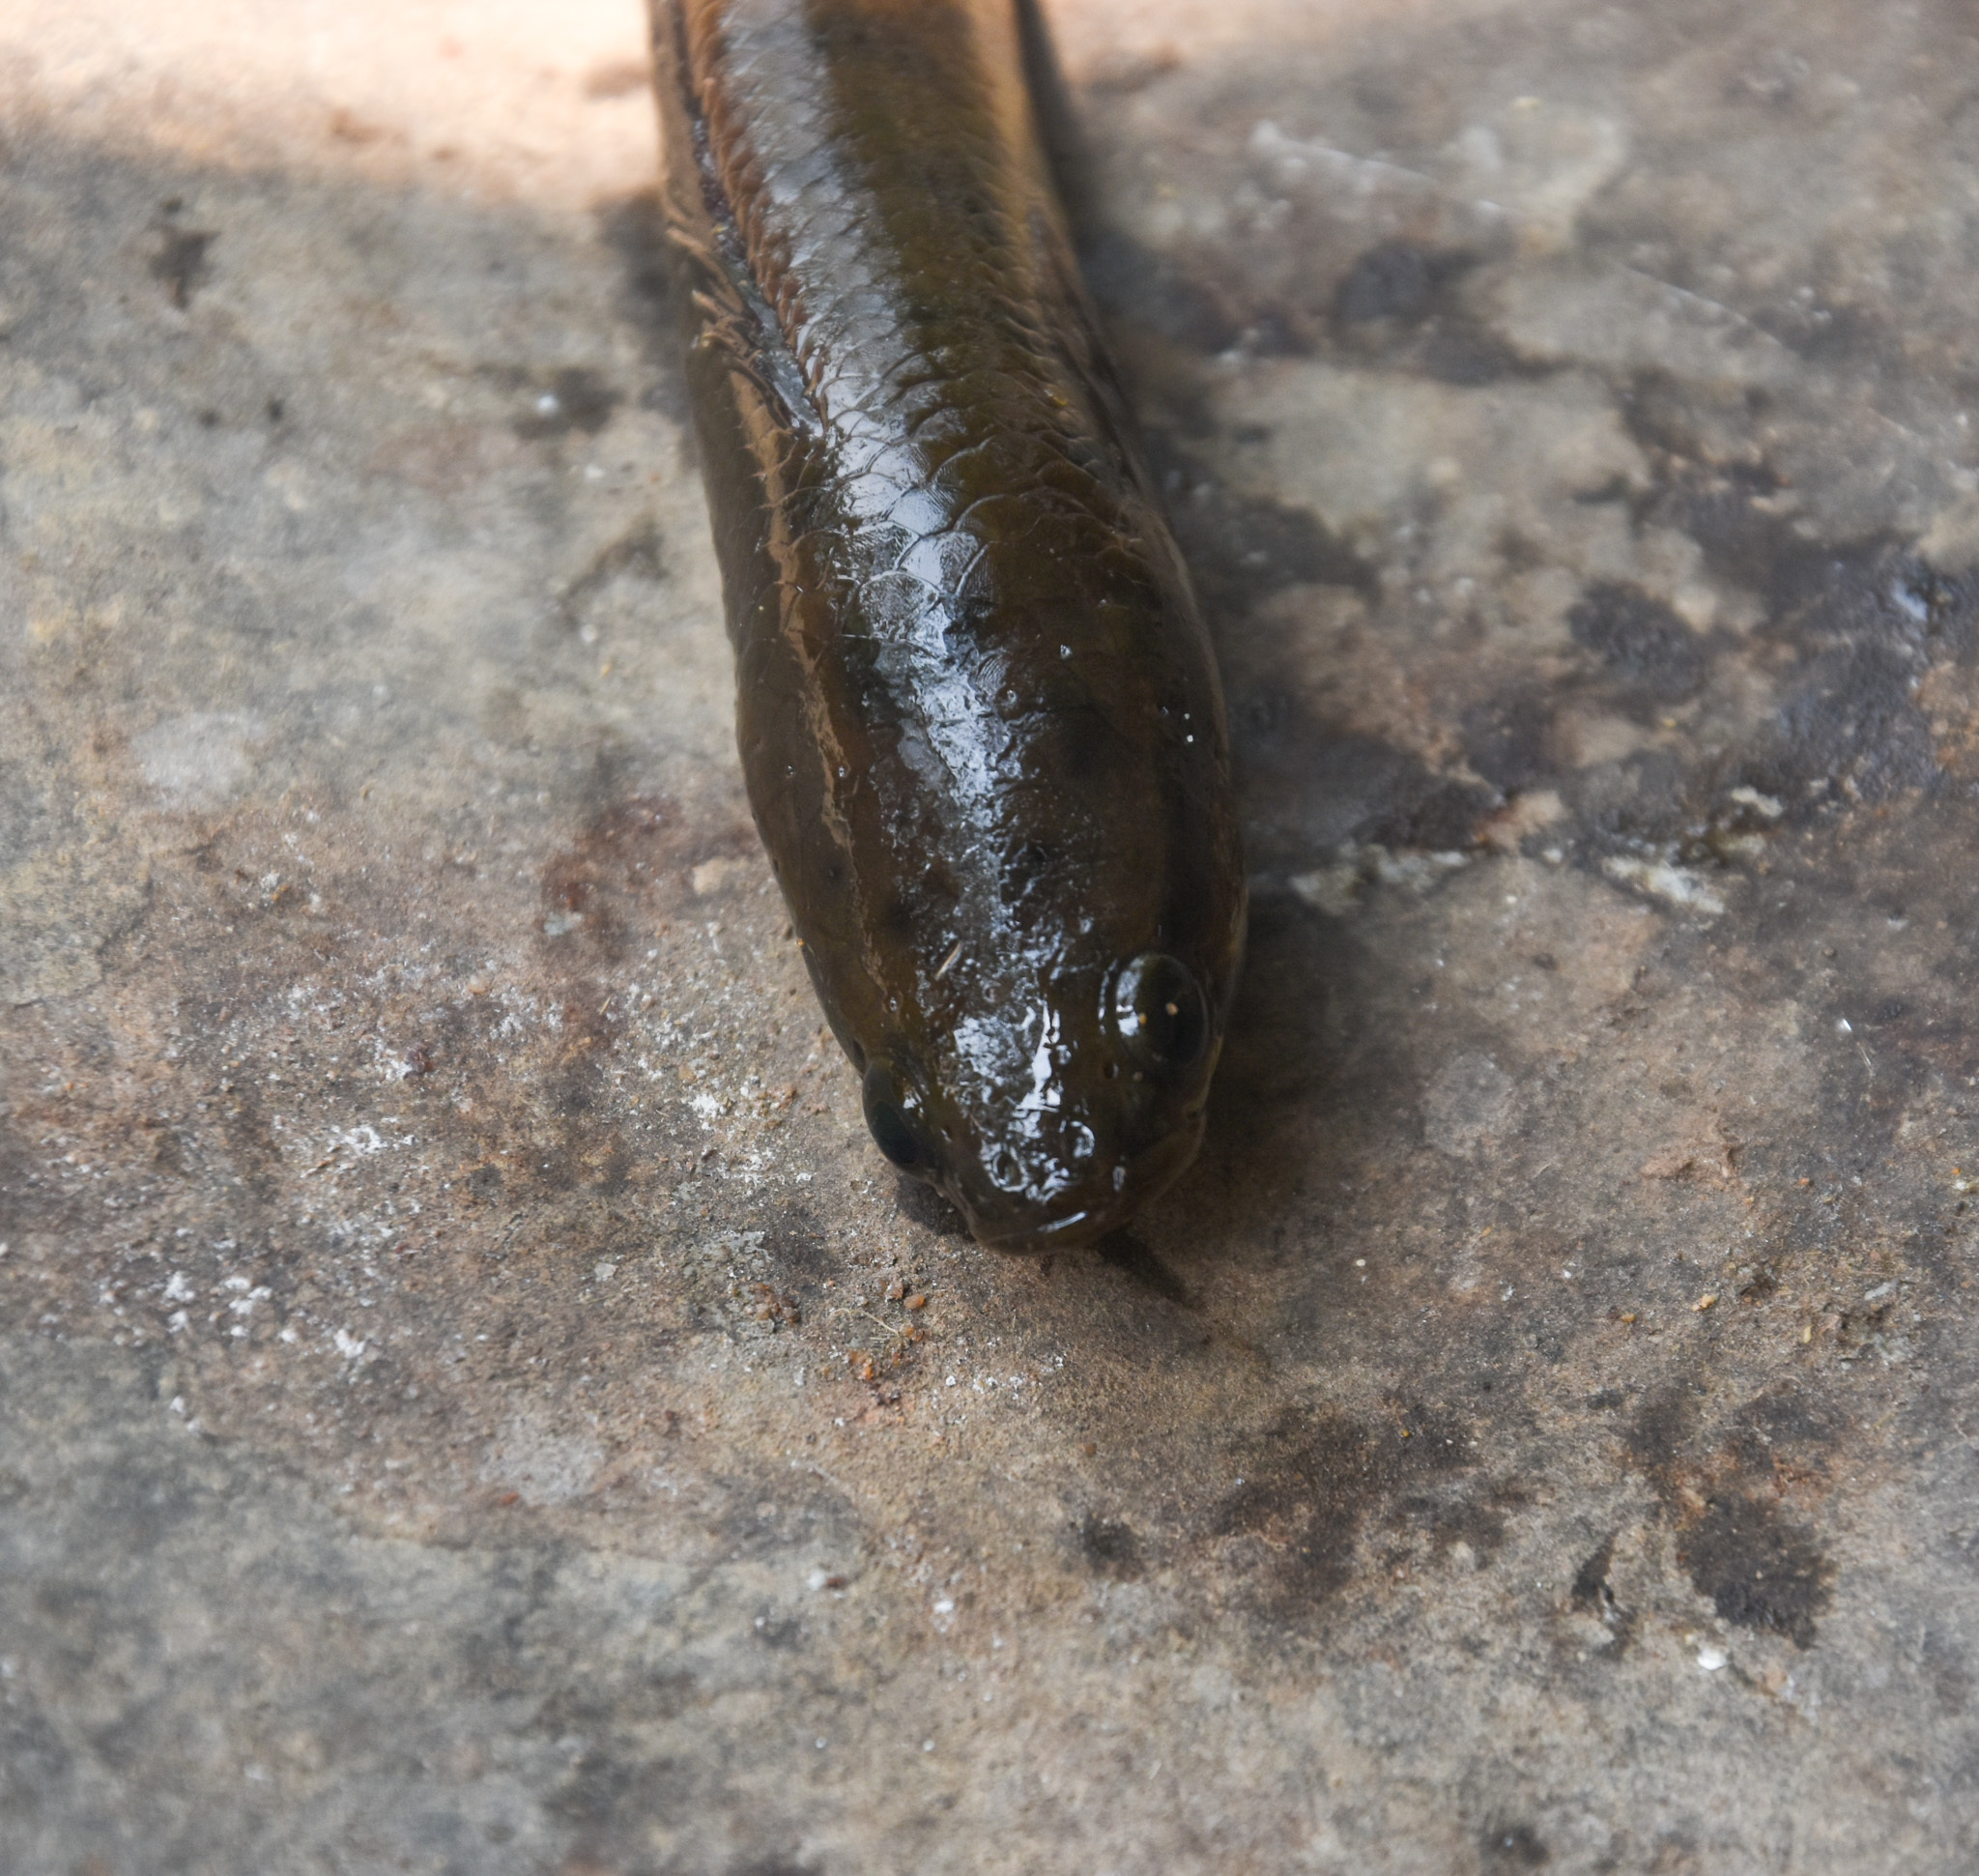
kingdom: Animalia
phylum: Chordata
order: Perciformes
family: Channidae
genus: Channa
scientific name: Channa punctata
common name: Spotted snakehead
